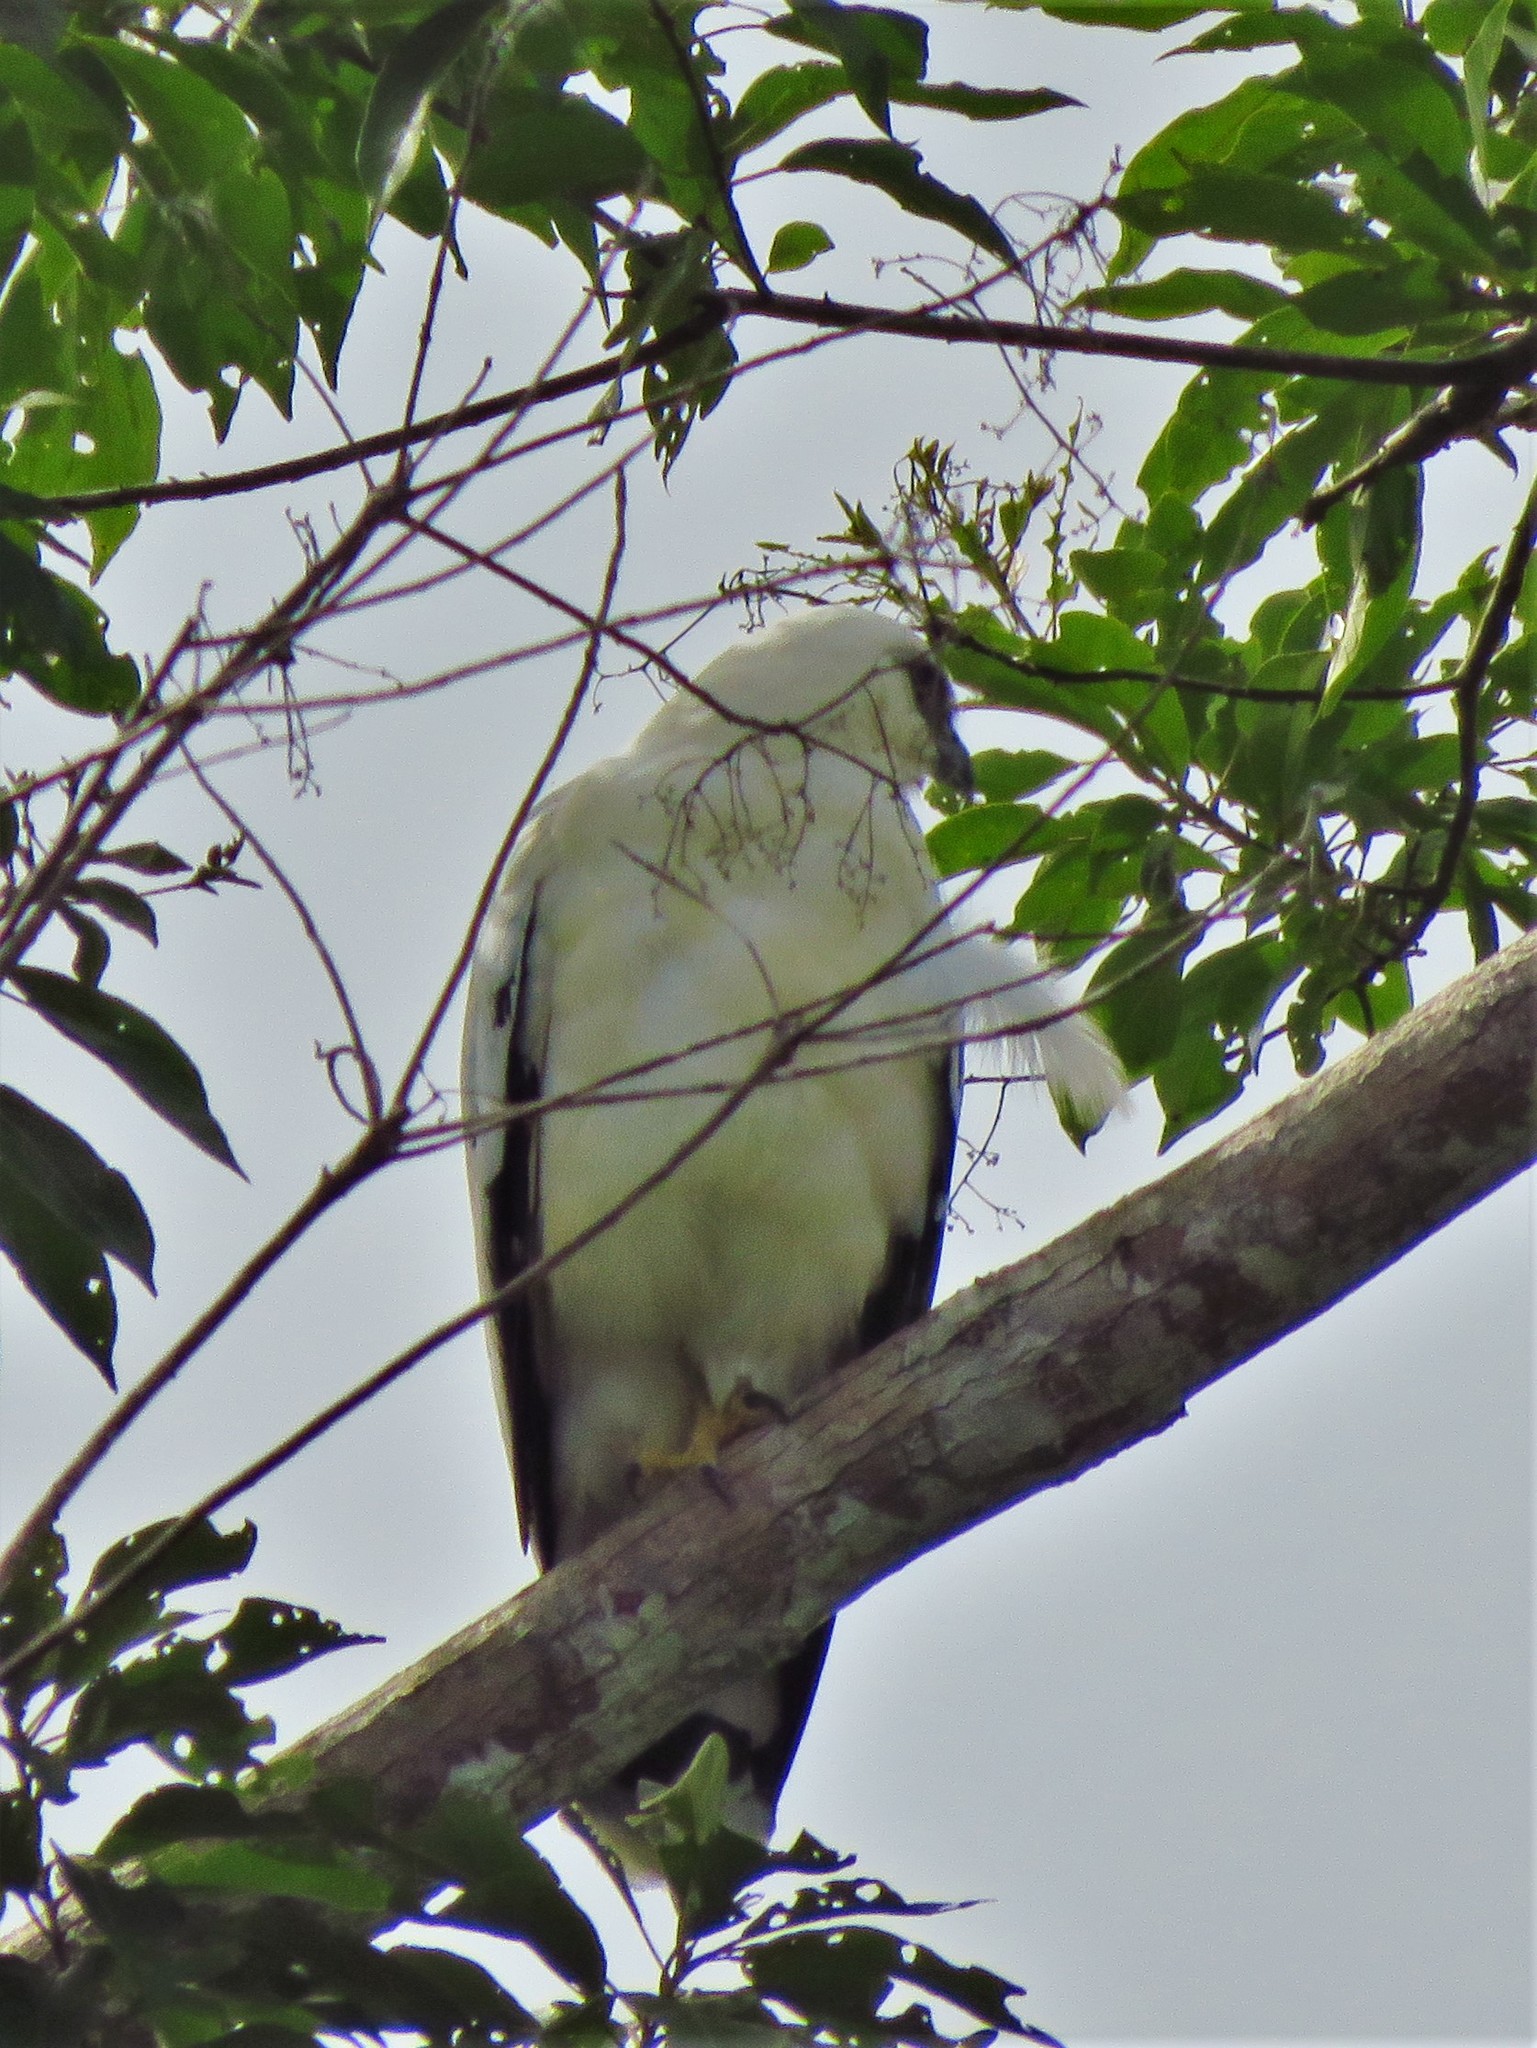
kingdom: Animalia
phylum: Chordata
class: Aves
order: Accipitriformes
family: Accipitridae
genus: Leucopternis
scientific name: Leucopternis albicollis
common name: White hawk
